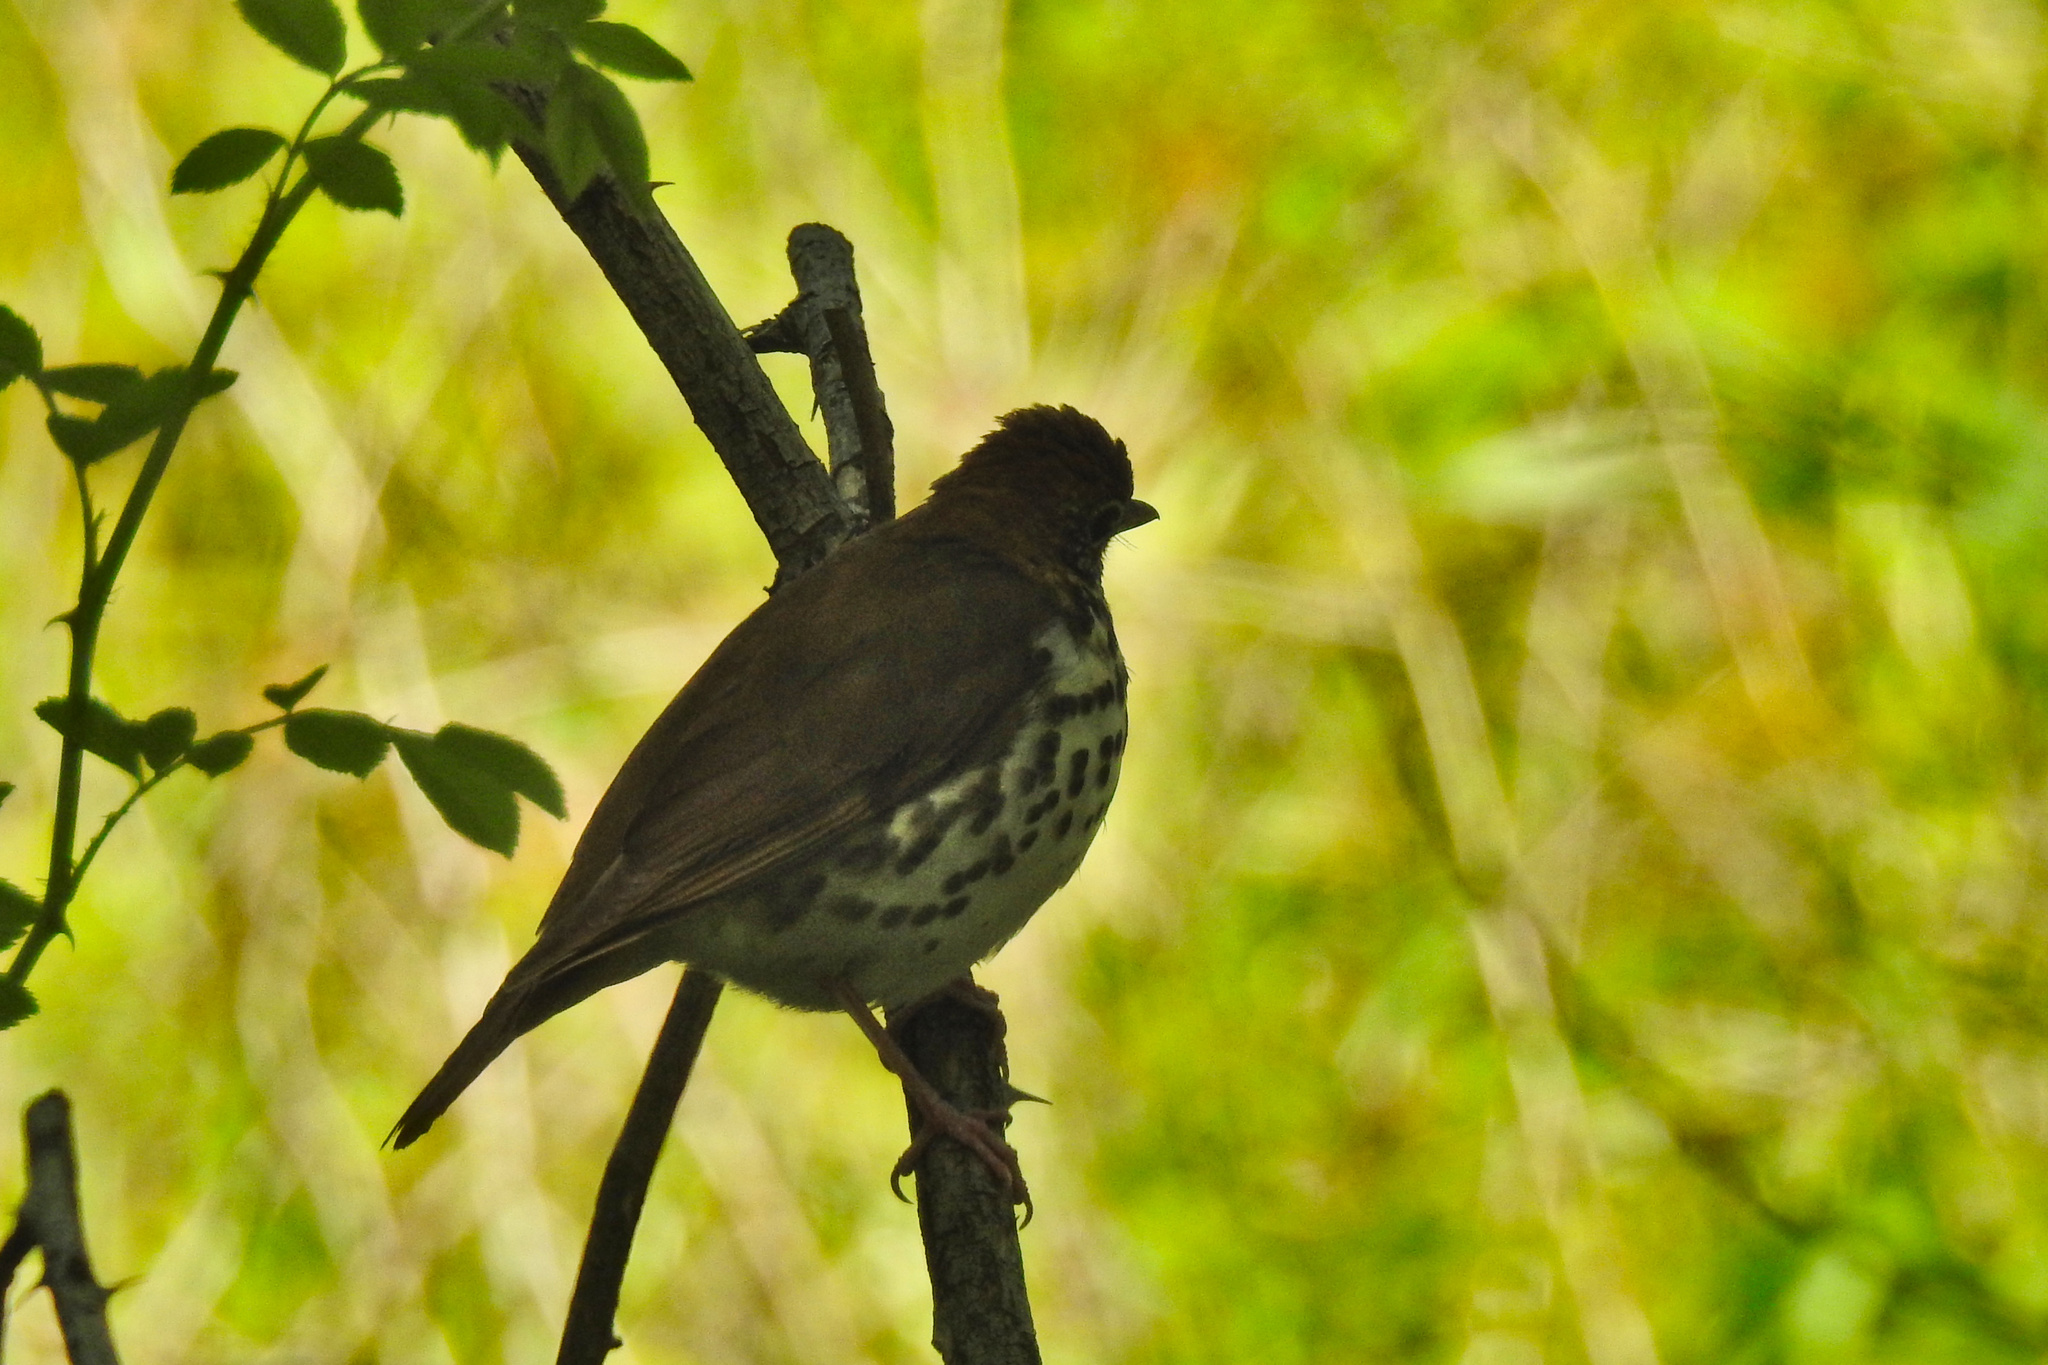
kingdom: Animalia
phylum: Chordata
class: Aves
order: Passeriformes
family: Turdidae
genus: Hylocichla
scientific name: Hylocichla mustelina
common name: Wood thrush
